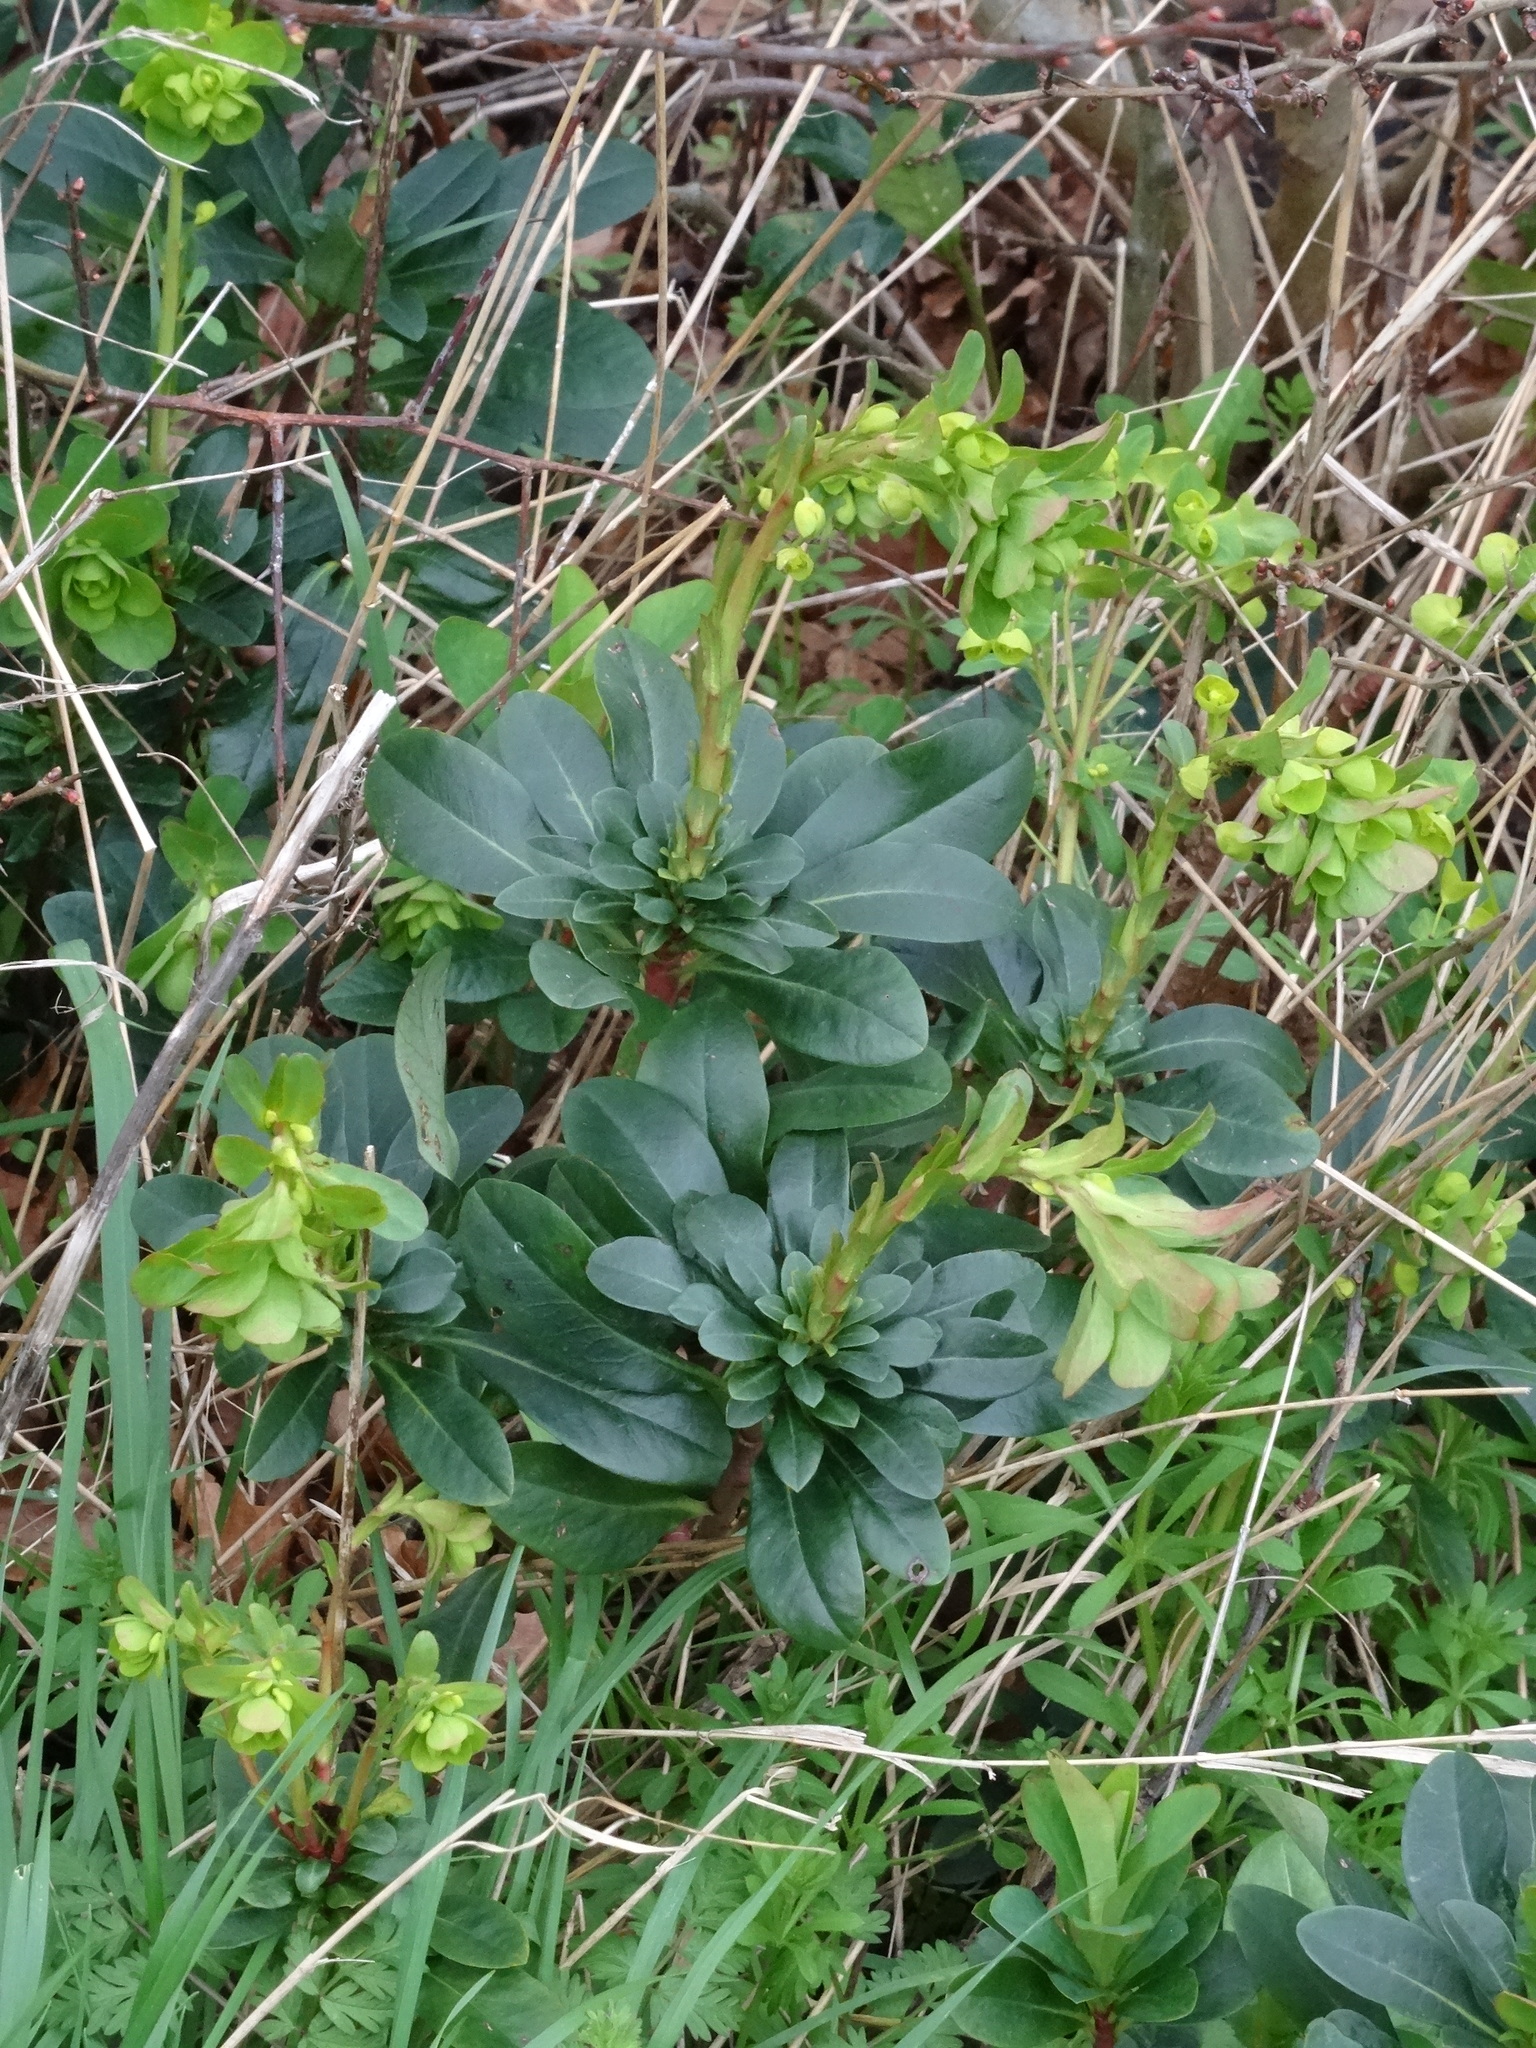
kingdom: Plantae
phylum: Tracheophyta
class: Magnoliopsida
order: Malpighiales
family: Euphorbiaceae
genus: Euphorbia
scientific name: Euphorbia amygdaloides
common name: Wood spurge
